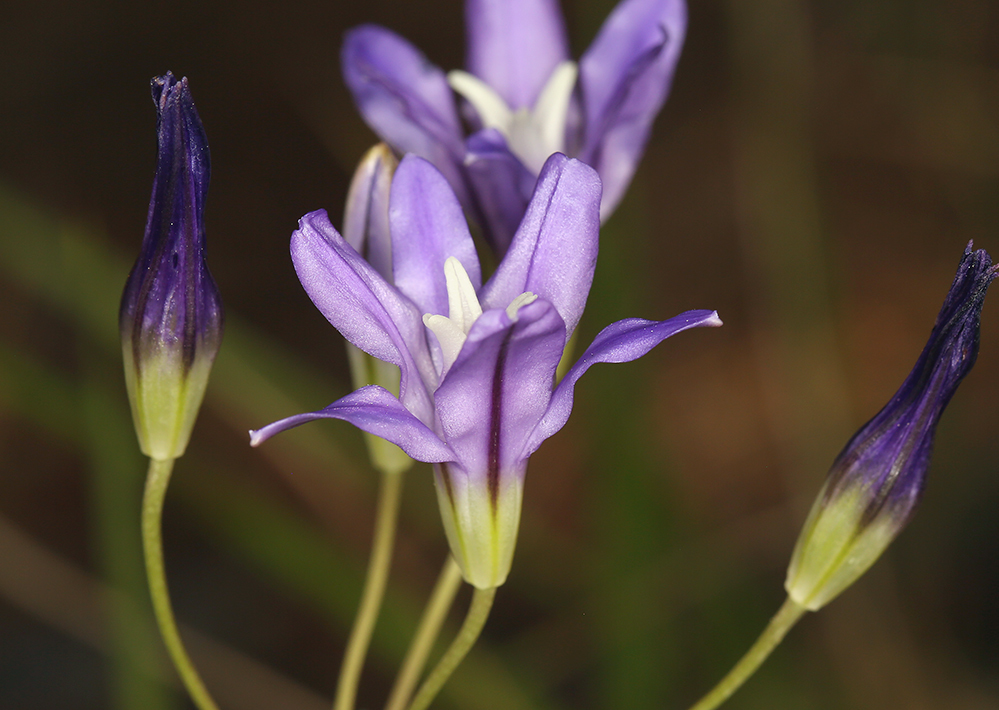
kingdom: Plantae
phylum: Tracheophyta
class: Liliopsida
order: Asparagales
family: Asparagaceae
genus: Brodiaea
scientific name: Brodiaea coronaria
